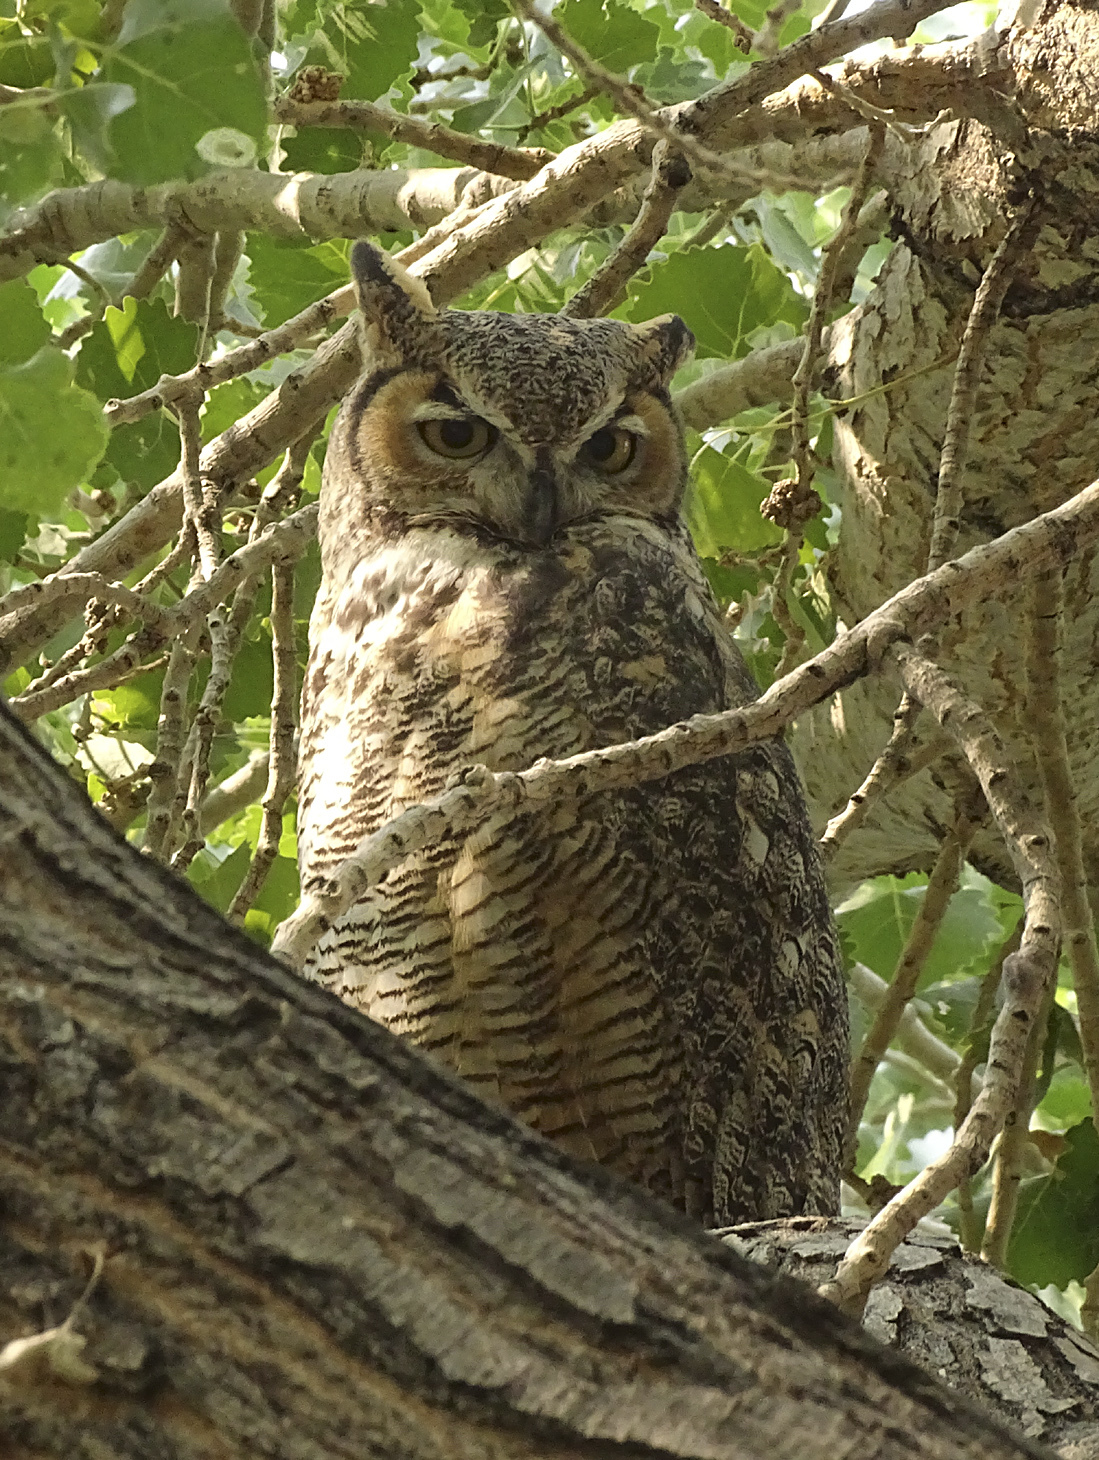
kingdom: Animalia
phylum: Chordata
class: Aves
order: Strigiformes
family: Strigidae
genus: Bubo
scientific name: Bubo virginianus
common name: Great horned owl
